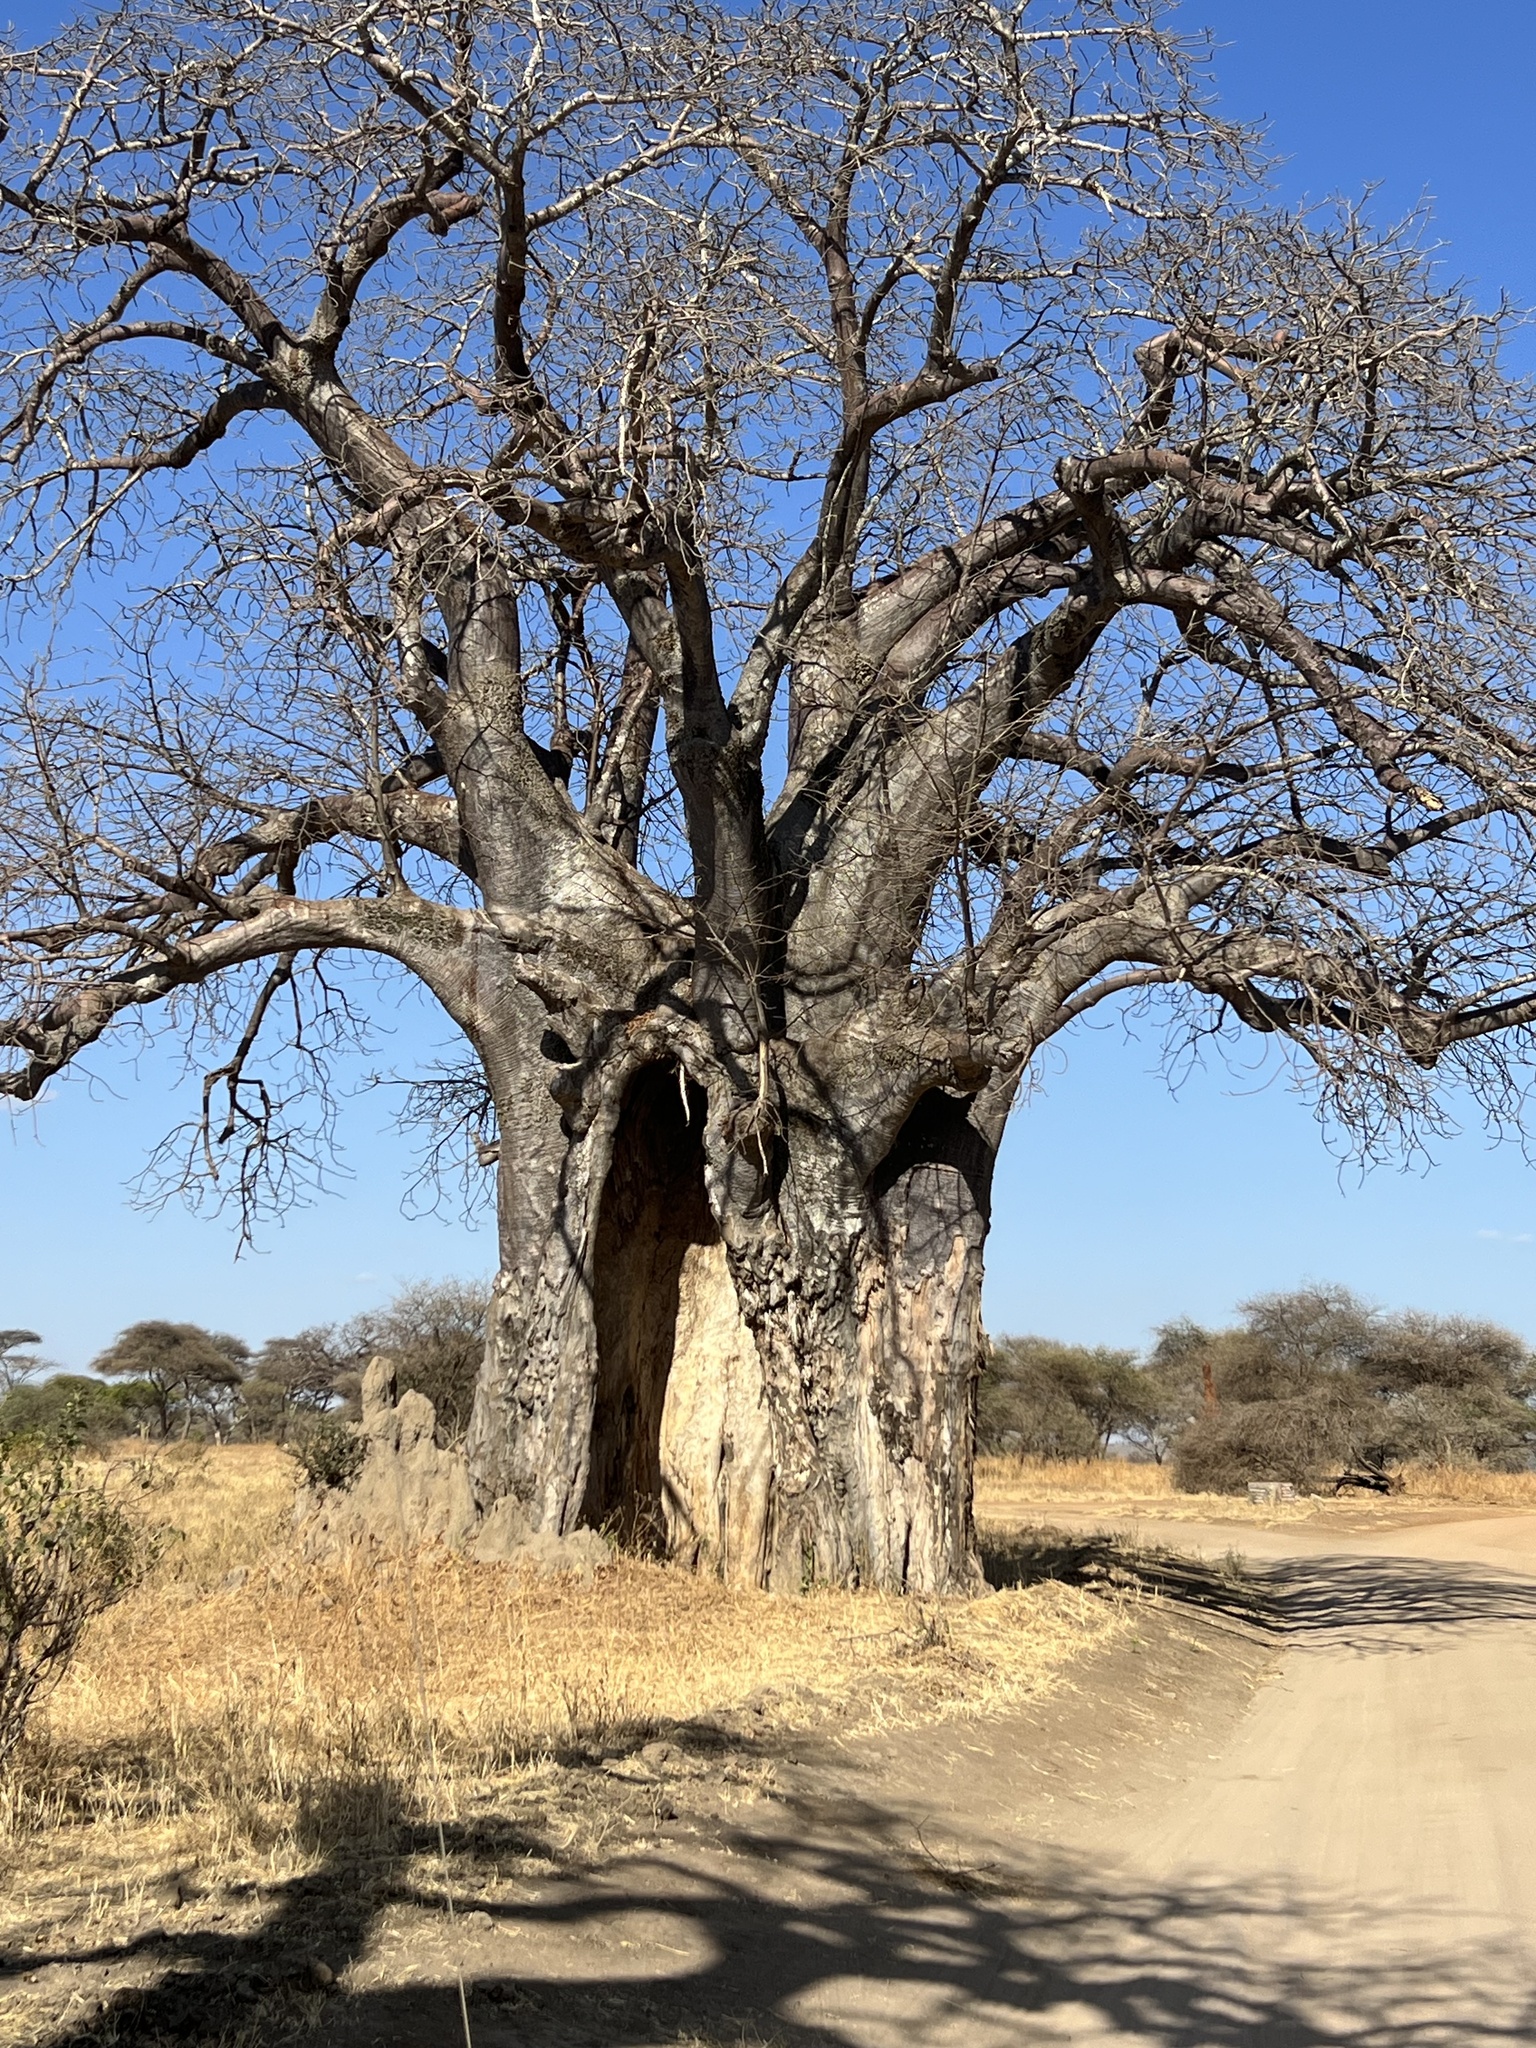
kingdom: Plantae
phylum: Tracheophyta
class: Magnoliopsida
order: Malvales
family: Malvaceae
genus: Adansonia
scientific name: Adansonia digitata
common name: Dead-rat-tree
